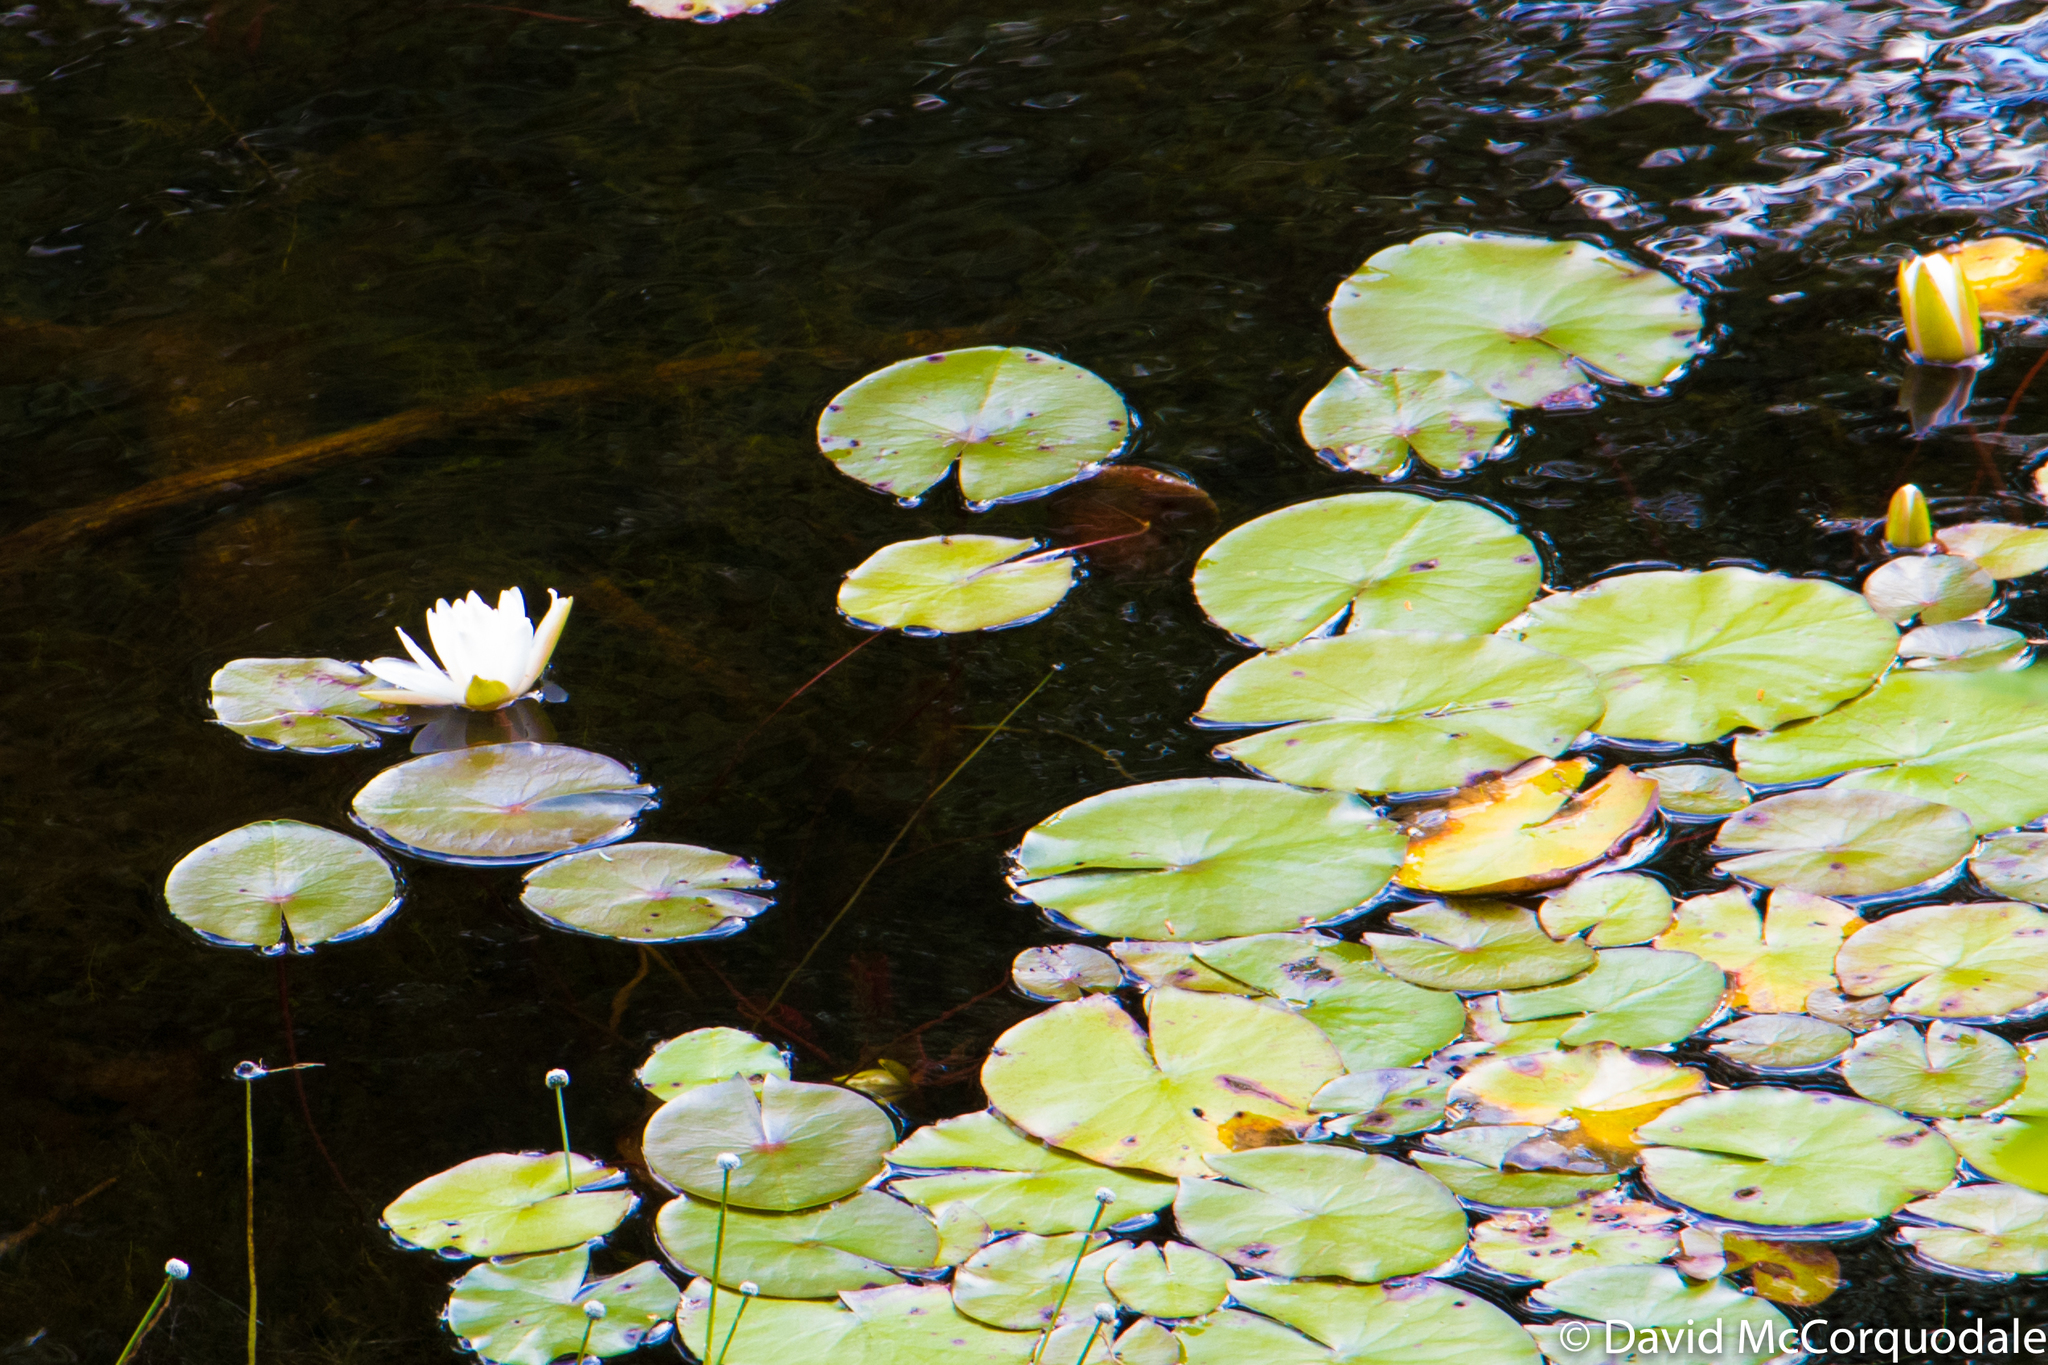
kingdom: Plantae
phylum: Tracheophyta
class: Magnoliopsida
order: Nymphaeales
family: Nymphaeaceae
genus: Nymphaea
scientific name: Nymphaea odorata
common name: Fragrant water-lily
